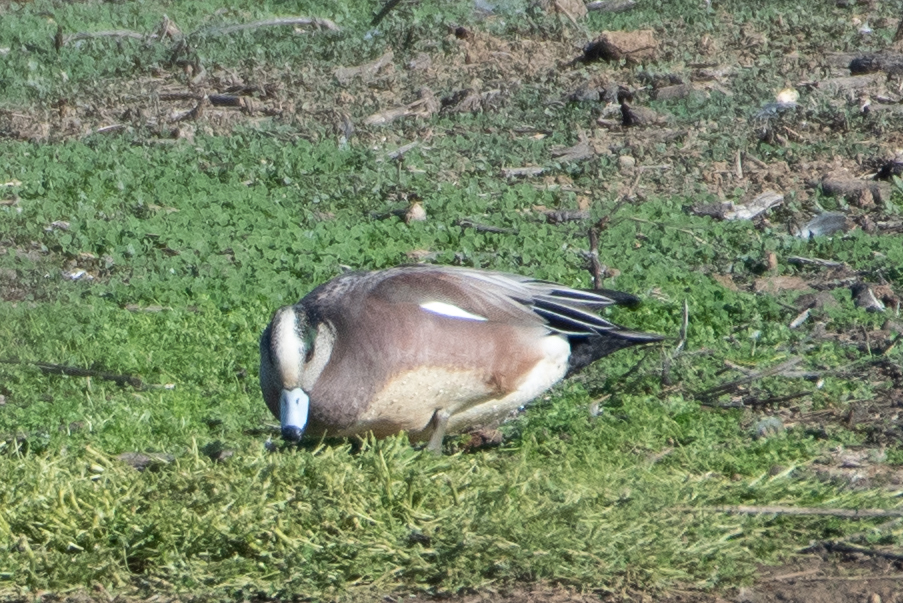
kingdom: Animalia
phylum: Chordata
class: Aves
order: Anseriformes
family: Anatidae
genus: Mareca
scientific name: Mareca americana
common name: American wigeon
